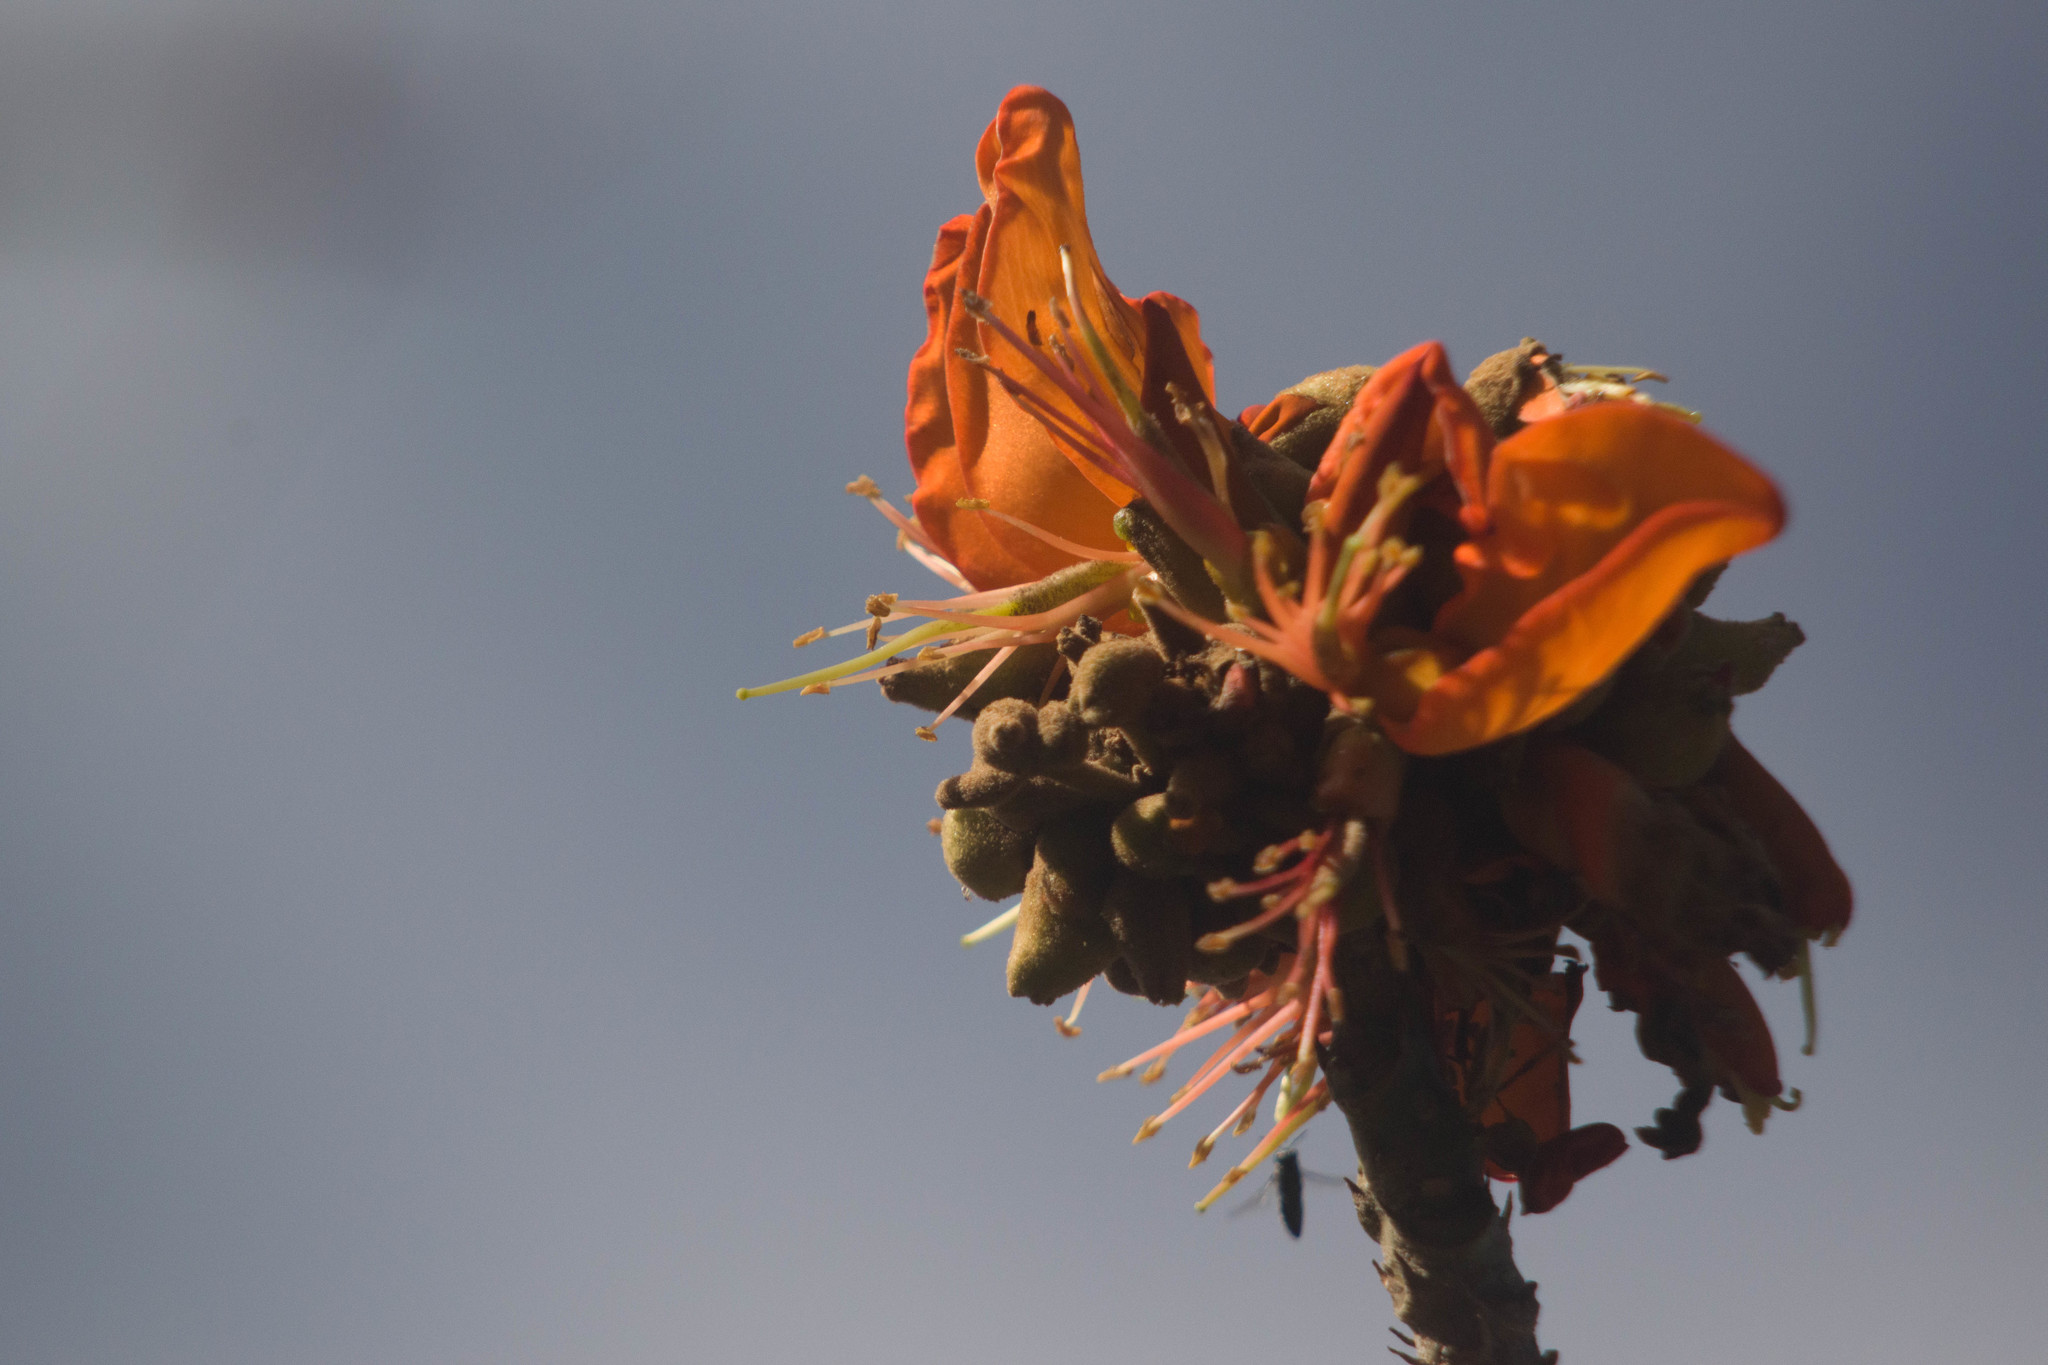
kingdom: Plantae
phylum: Tracheophyta
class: Magnoliopsida
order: Fabales
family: Fabaceae
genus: Erythrina
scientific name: Erythrina sandwicensis
